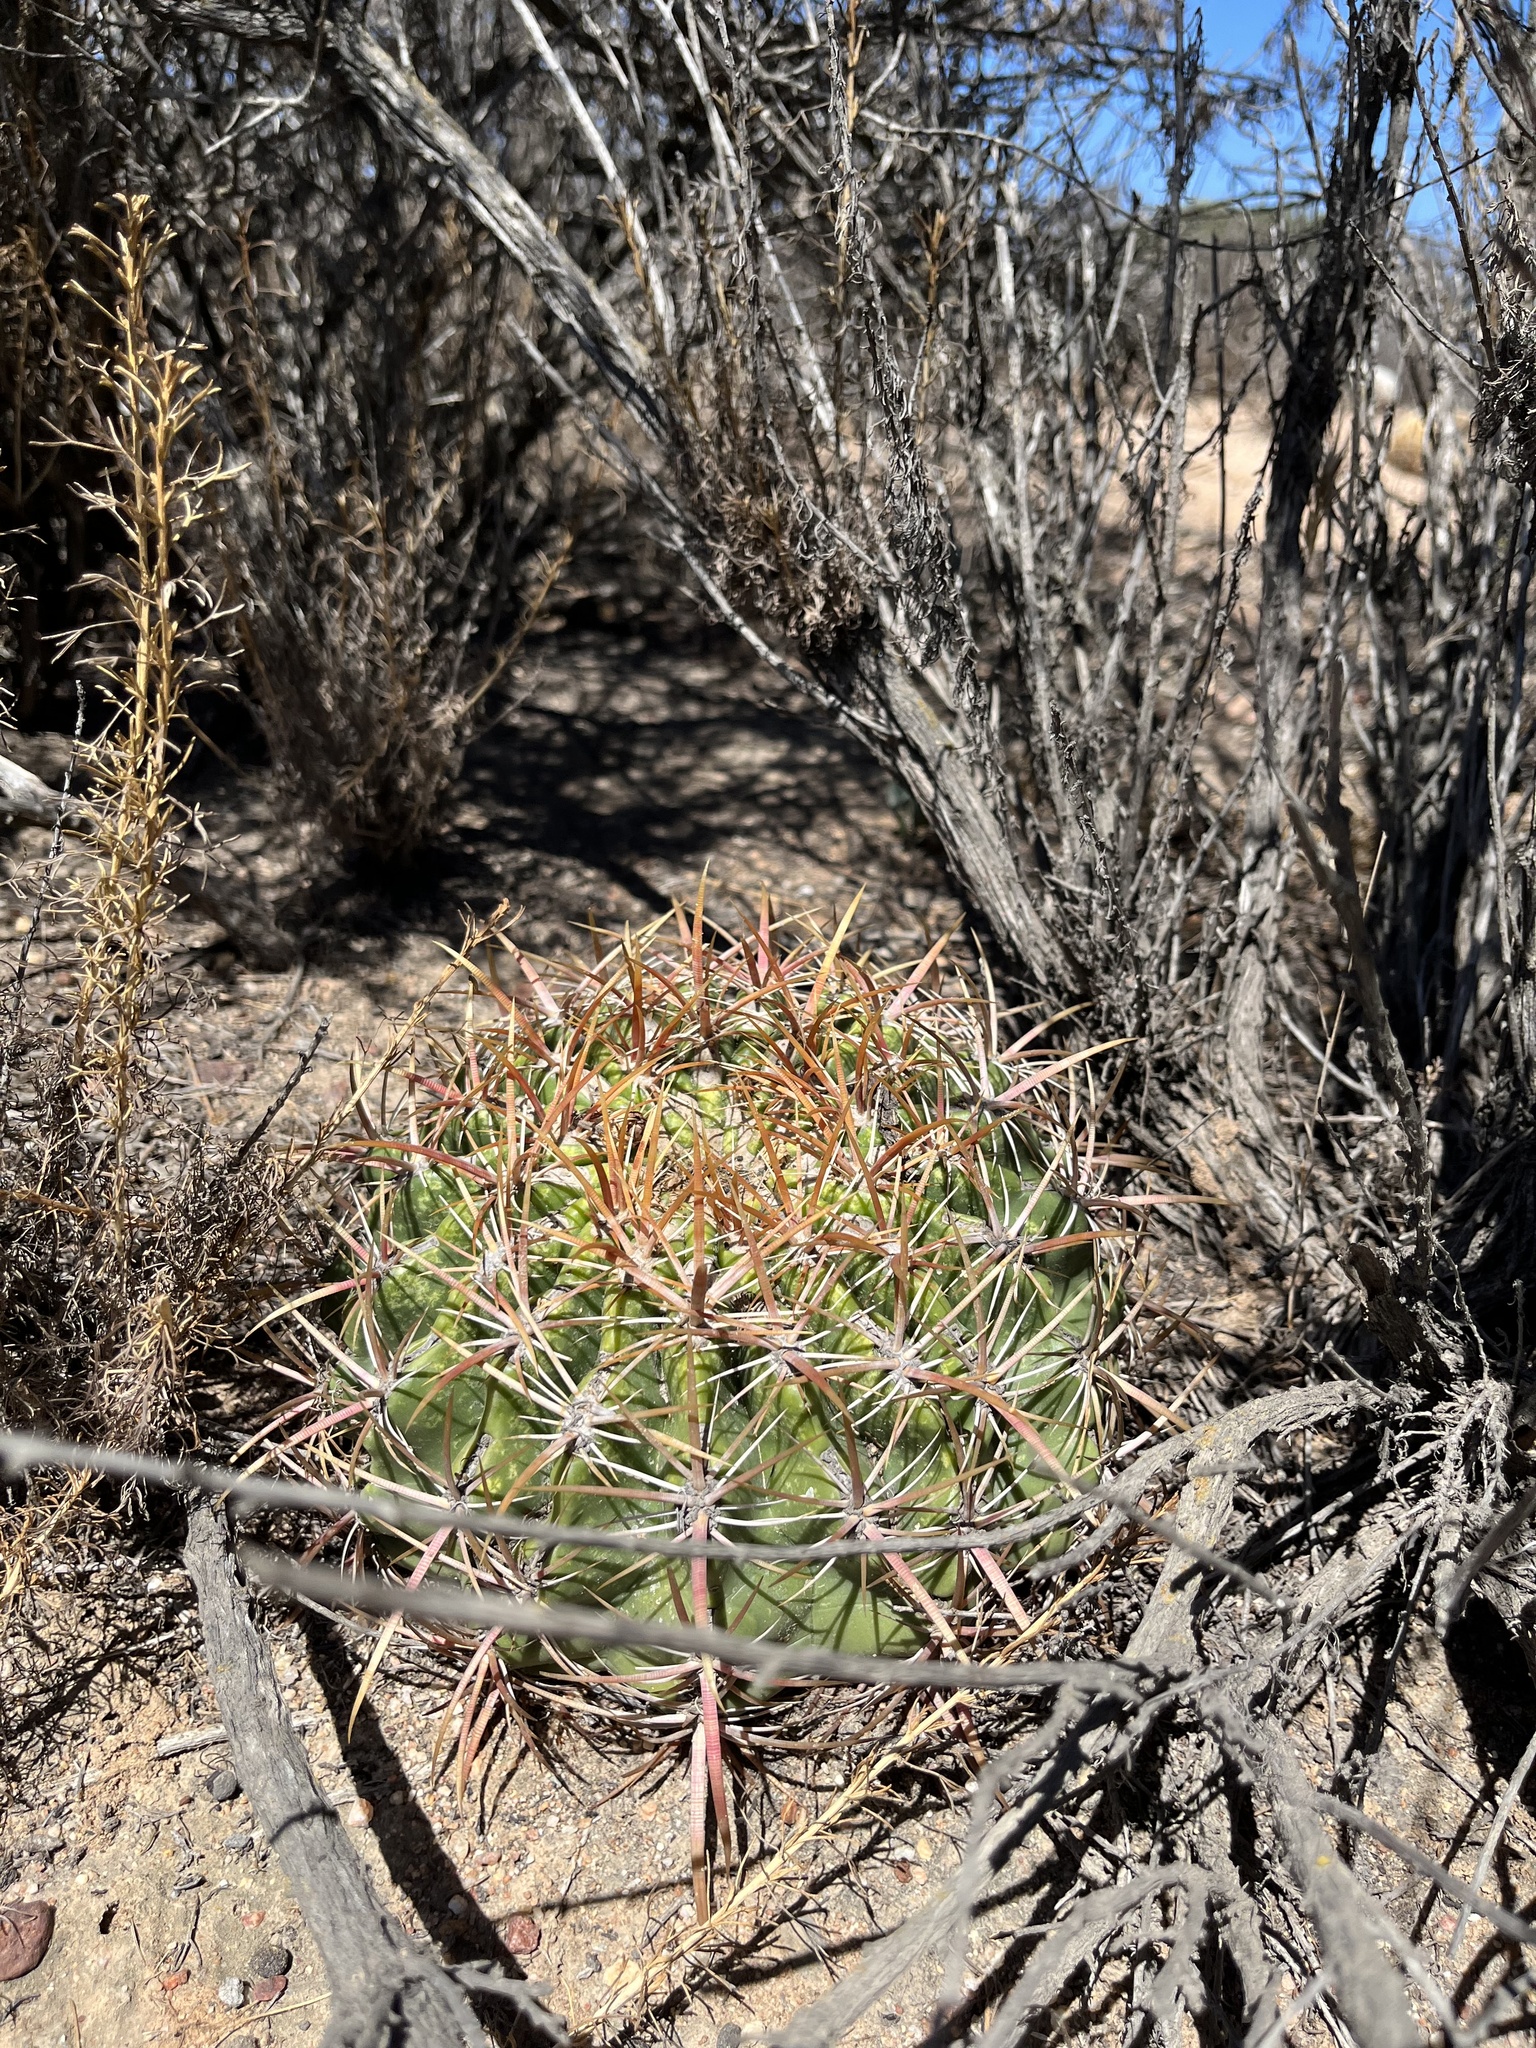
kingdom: Plantae
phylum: Tracheophyta
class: Magnoliopsida
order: Caryophyllales
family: Cactaceae
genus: Ferocactus
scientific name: Ferocactus viridescens
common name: San diego barrel cactus
